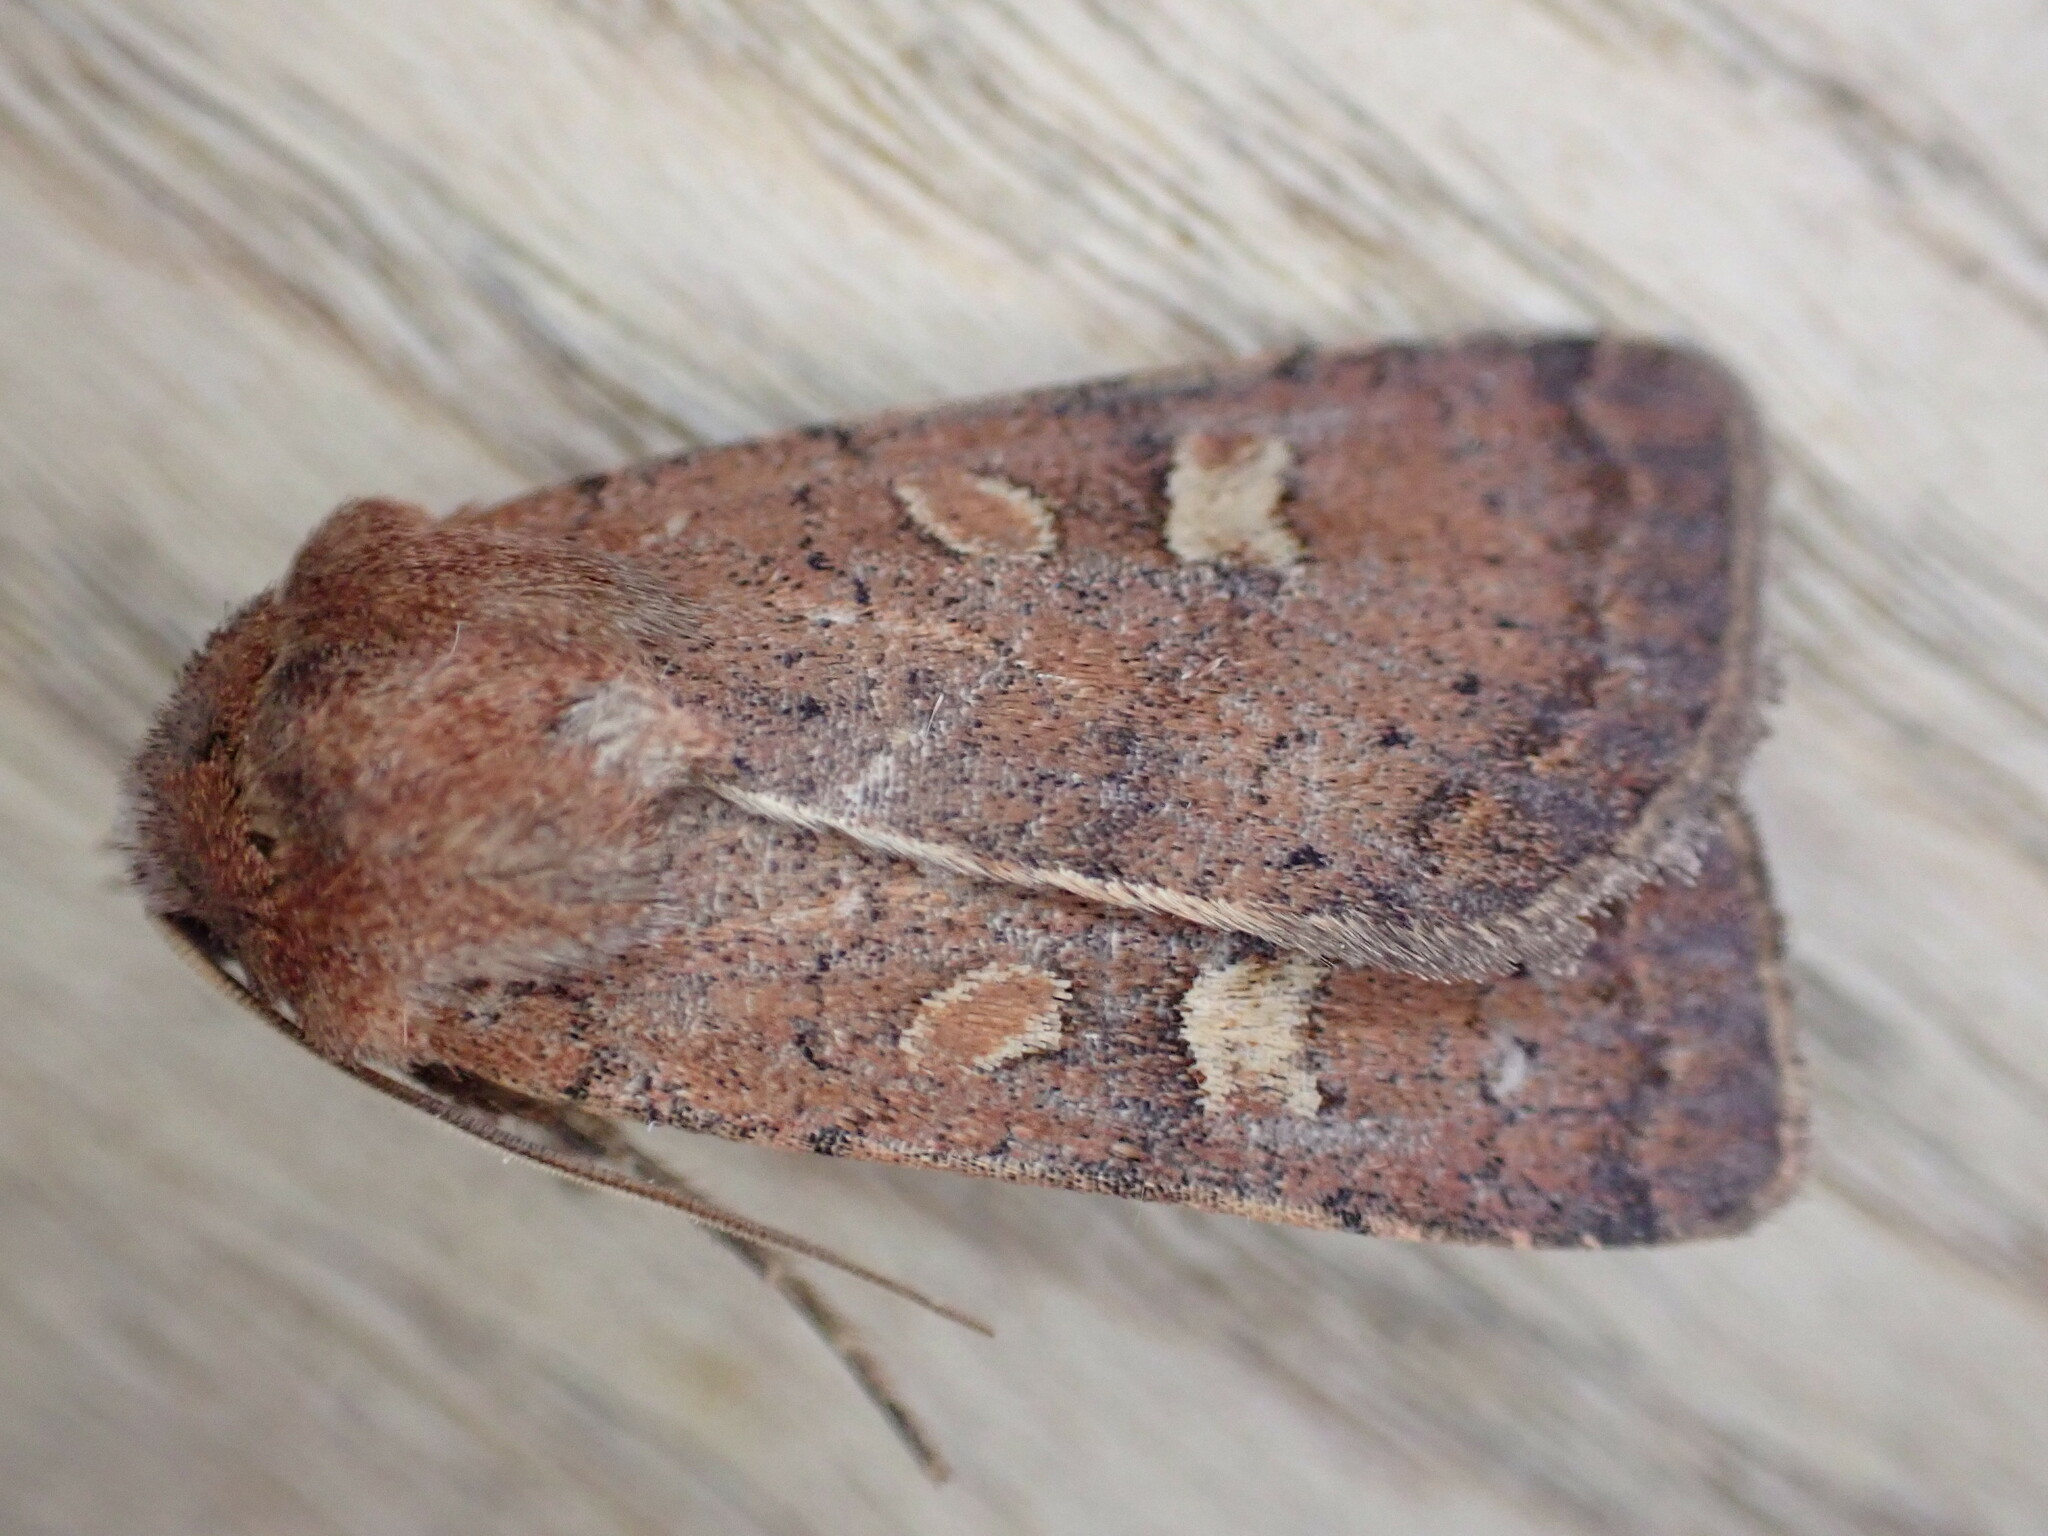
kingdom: Animalia
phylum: Arthropoda
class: Insecta
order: Lepidoptera
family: Noctuidae
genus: Xestia
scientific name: Xestia xanthographa
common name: Square-spot rustic
